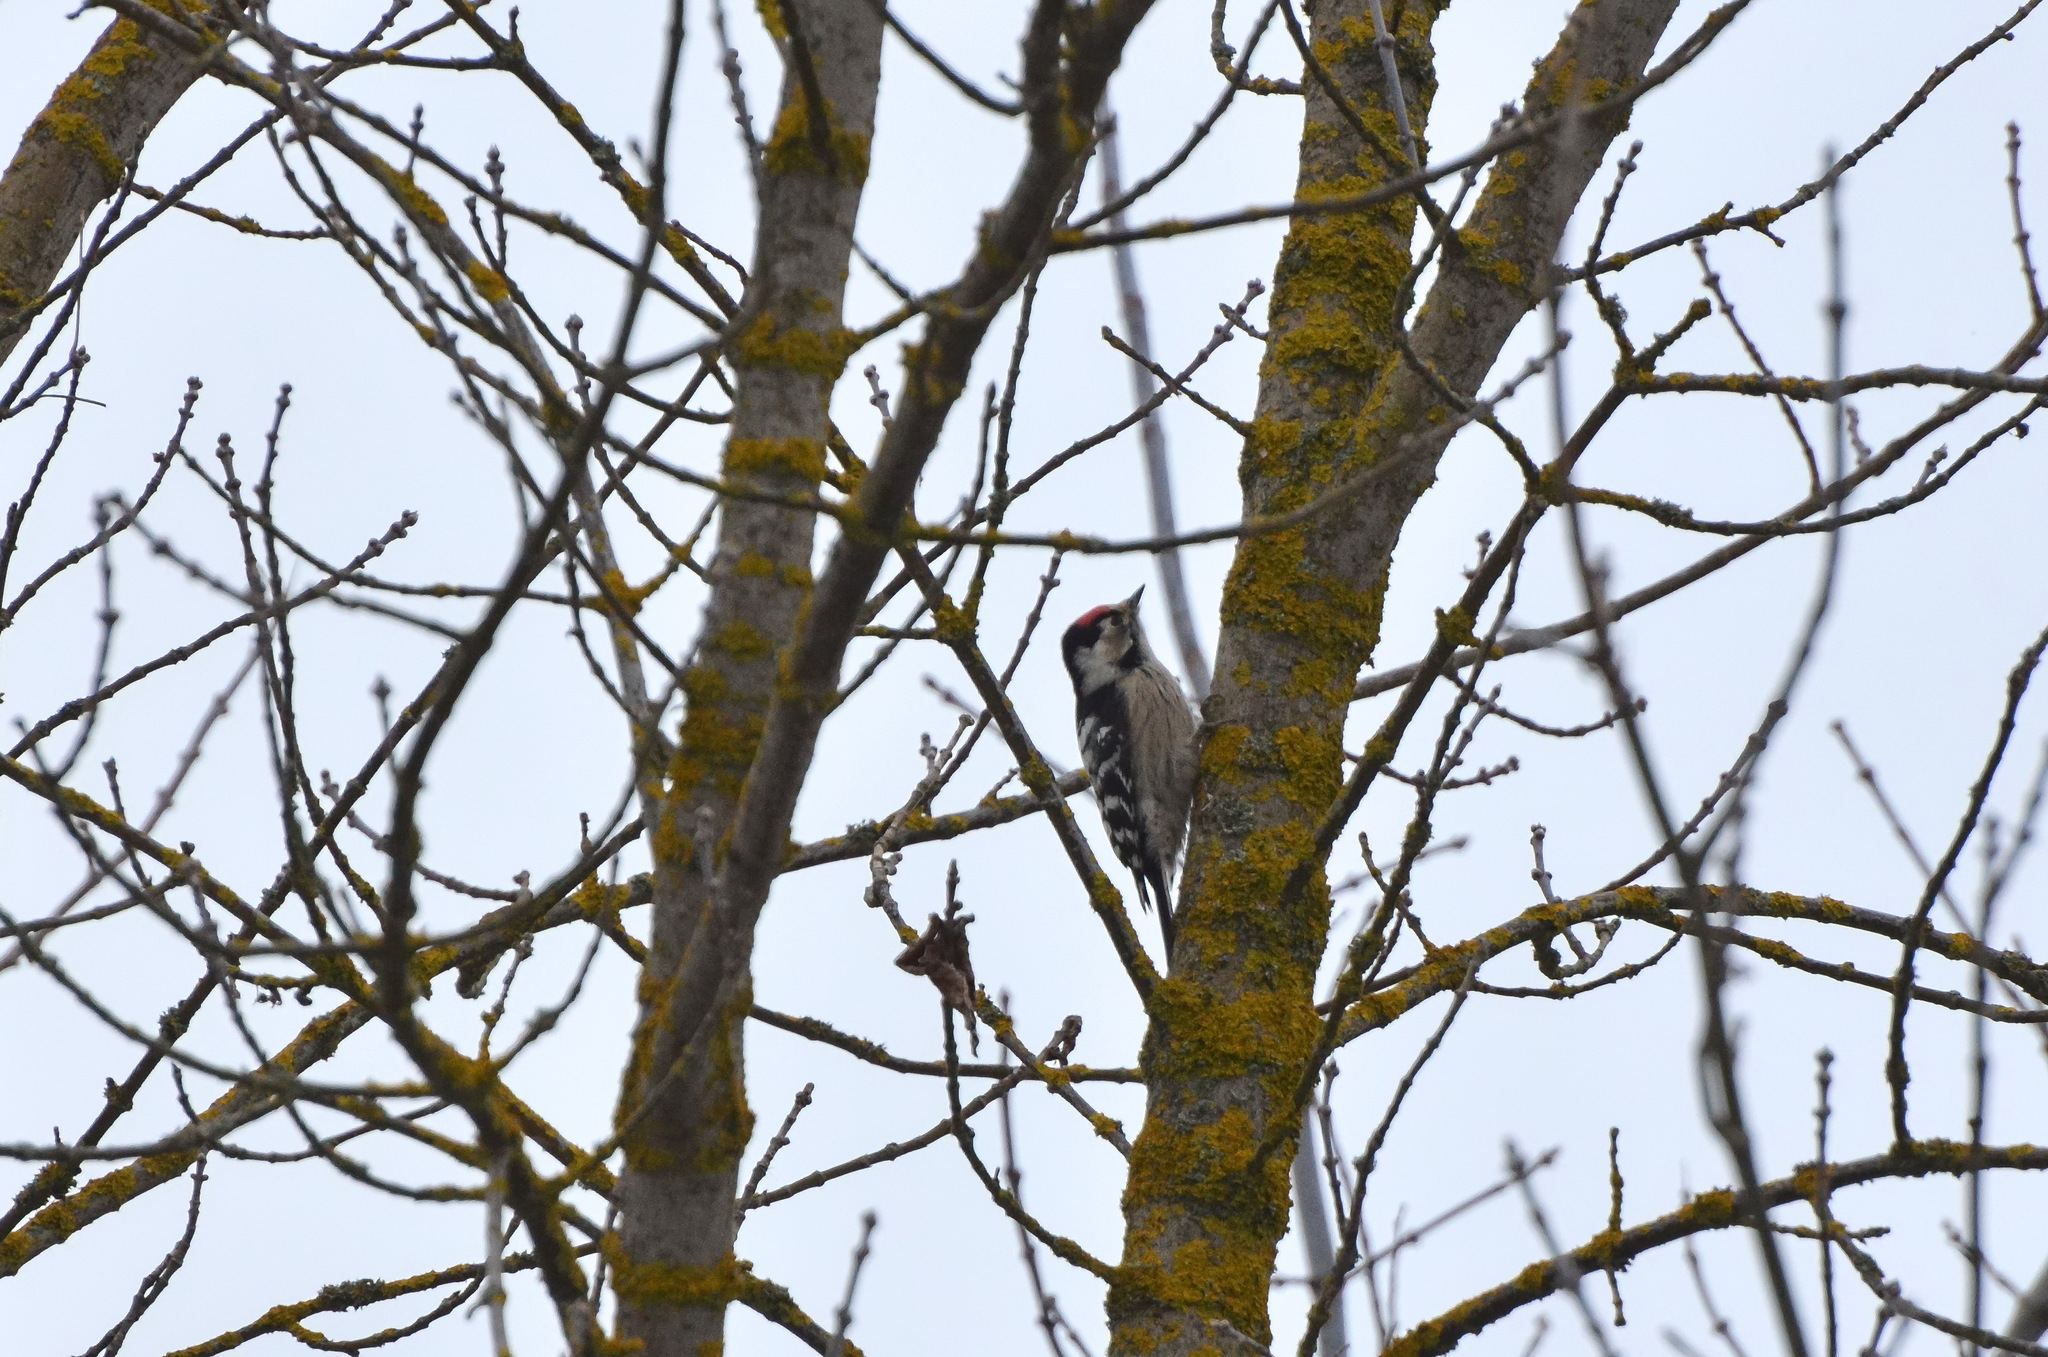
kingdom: Animalia
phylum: Chordata
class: Aves
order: Piciformes
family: Picidae
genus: Dryobates
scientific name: Dryobates minor
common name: Lesser spotted woodpecker
